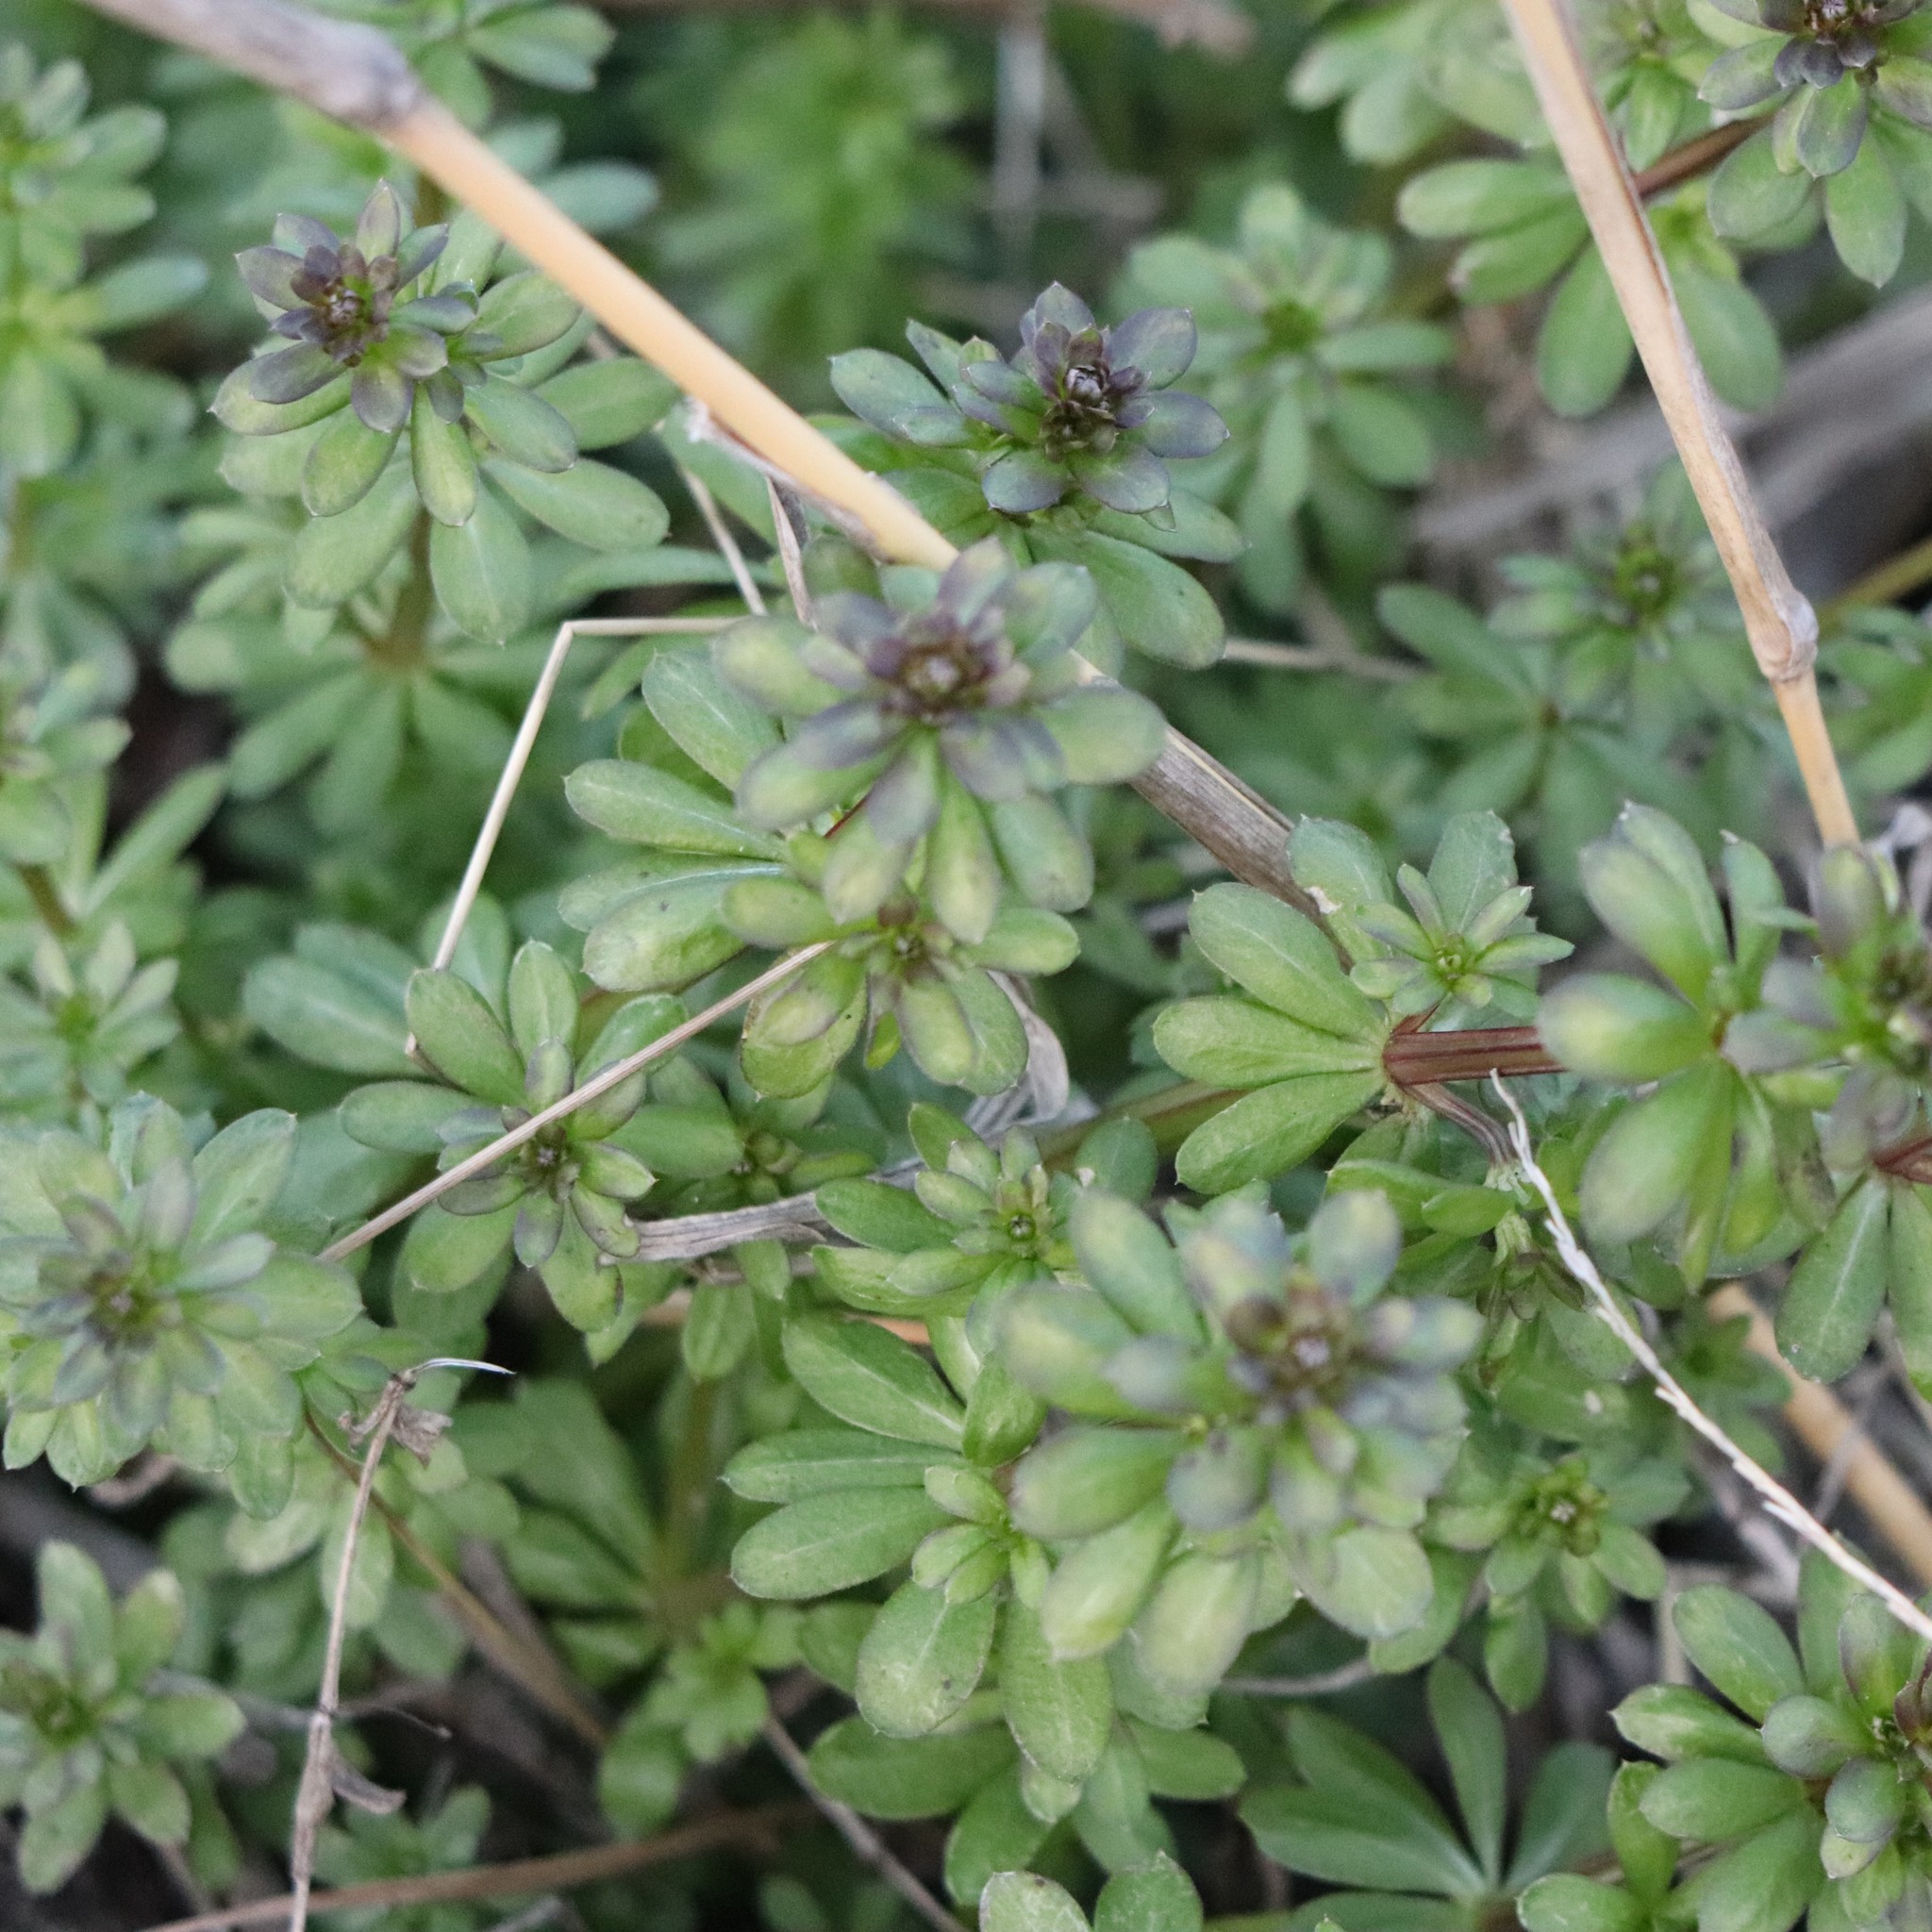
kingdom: Plantae
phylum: Tracheophyta
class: Magnoliopsida
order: Gentianales
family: Rubiaceae
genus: Galium
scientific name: Galium mollugo
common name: Hedge bedstraw
